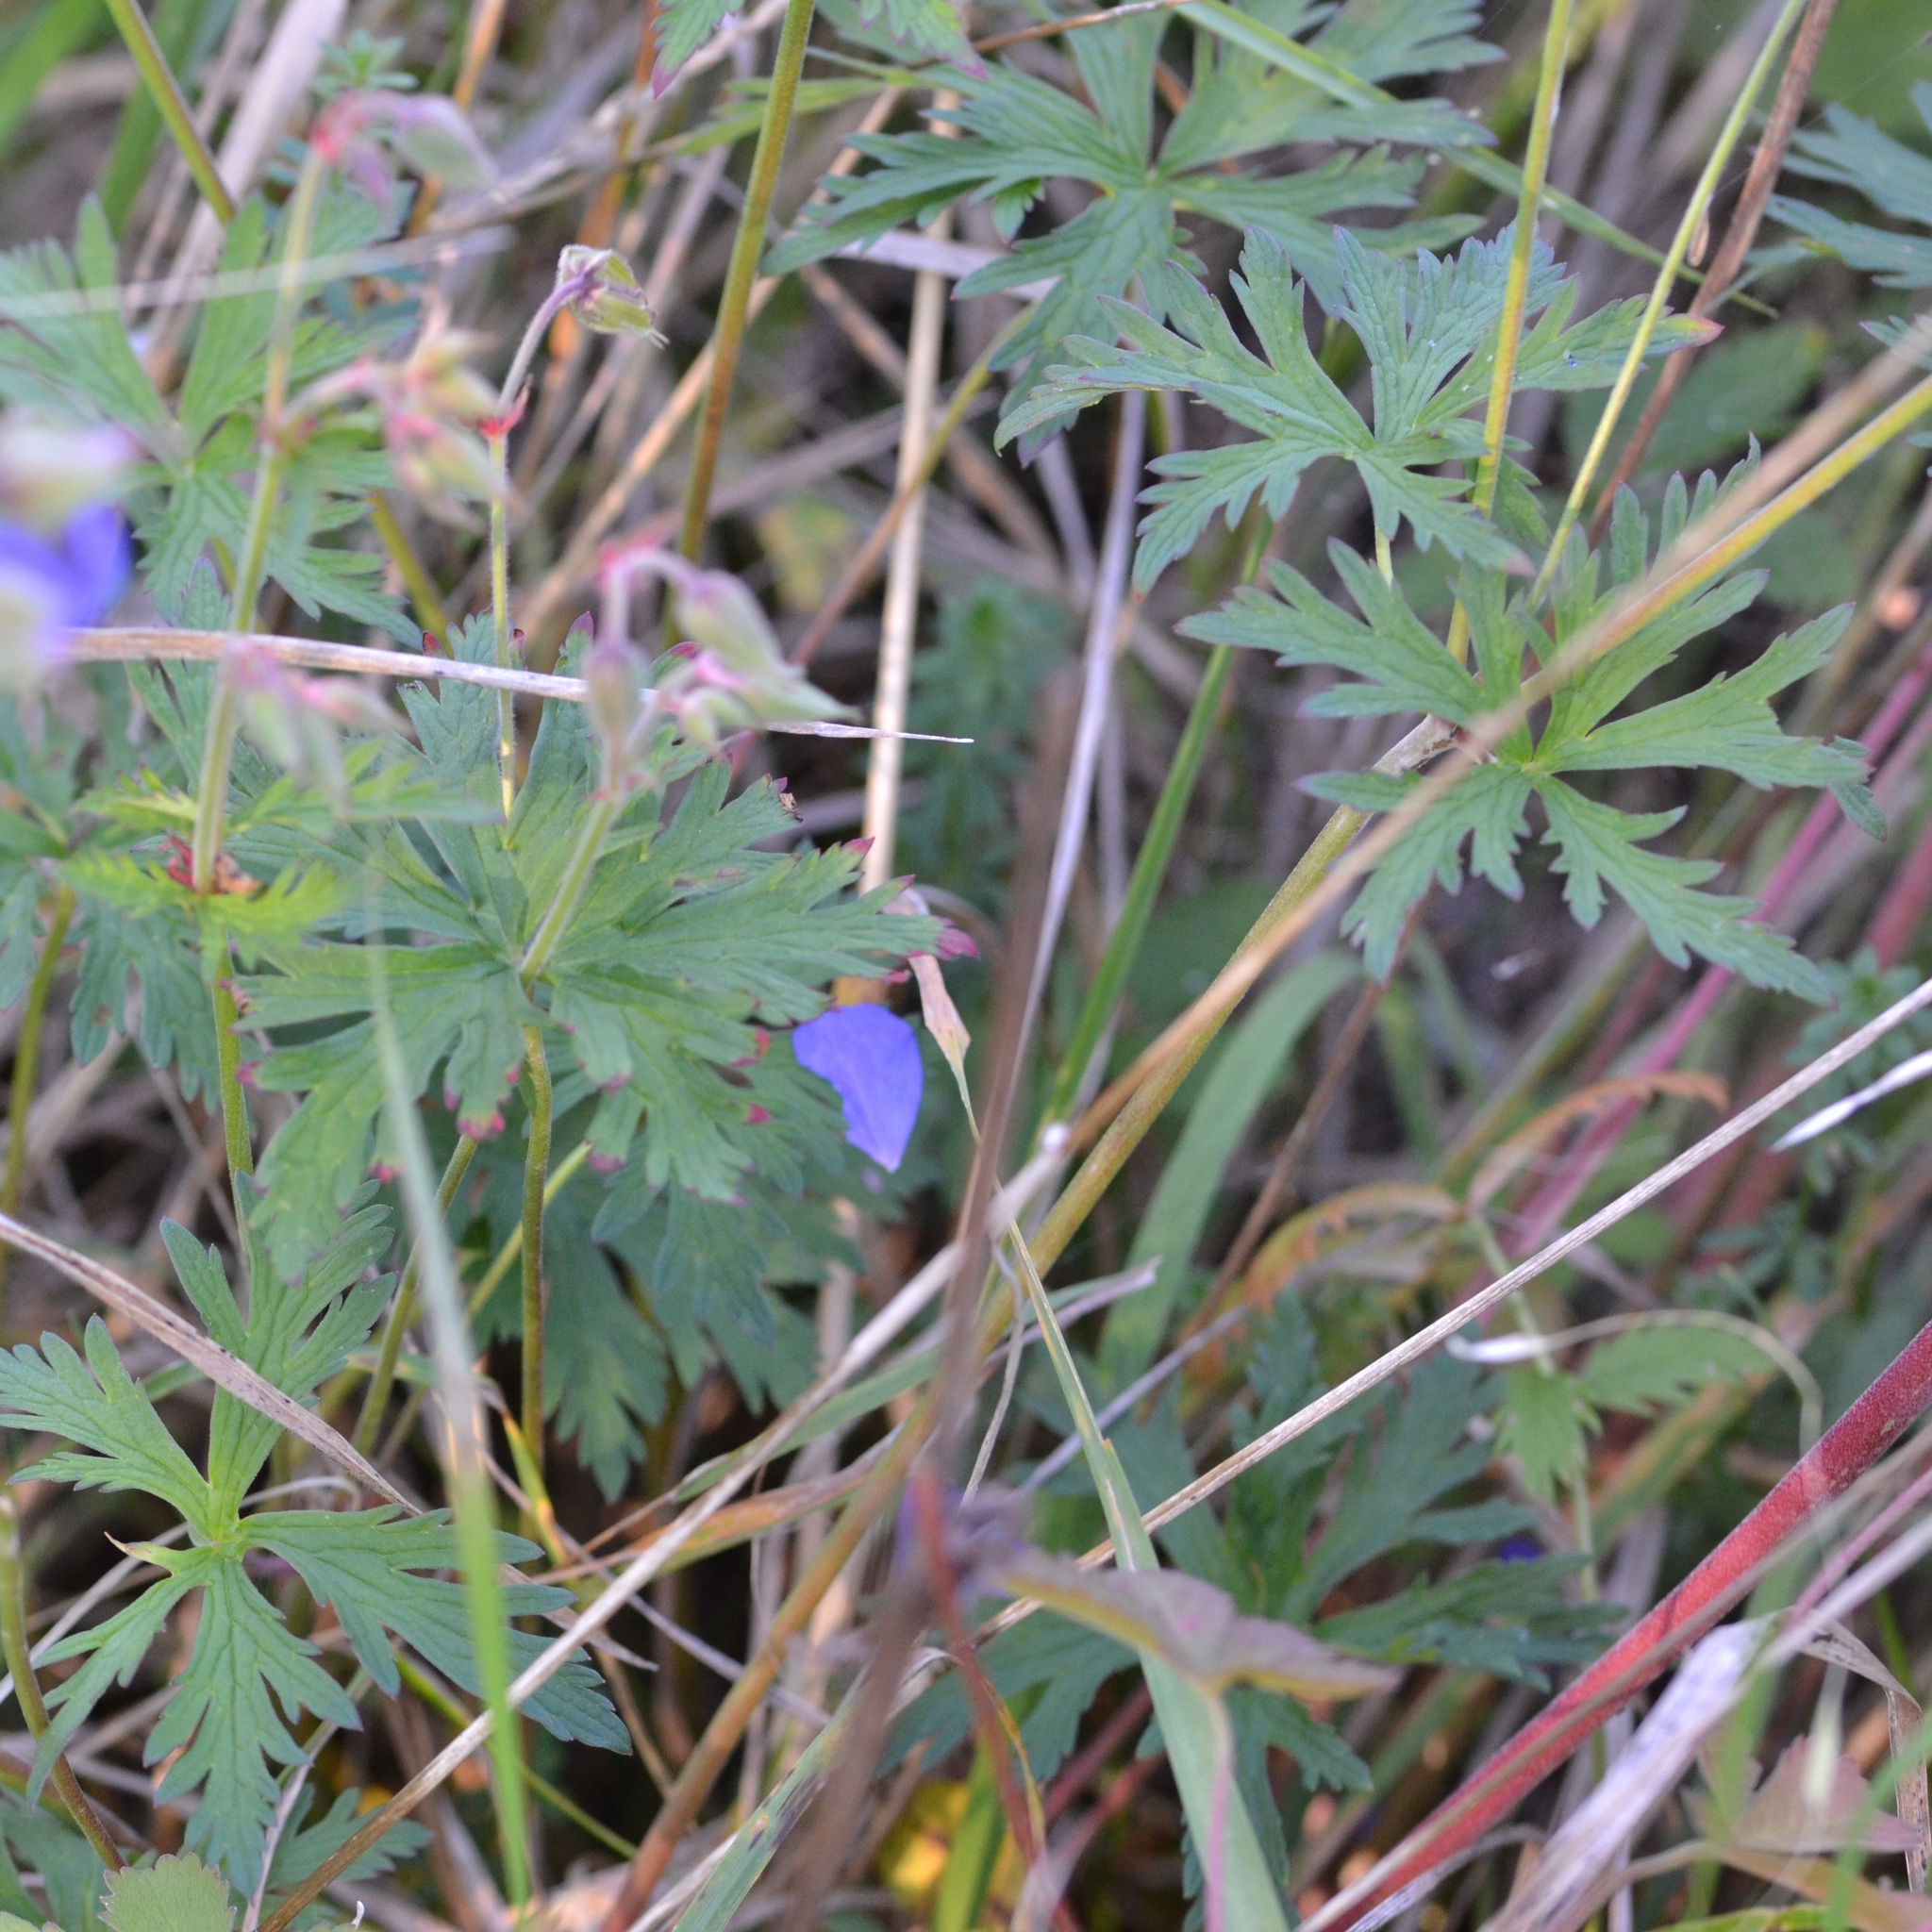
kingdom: Plantae
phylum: Tracheophyta
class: Magnoliopsida
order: Geraniales
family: Geraniaceae
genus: Geranium
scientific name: Geranium pratense
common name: Meadow crane's-bill
